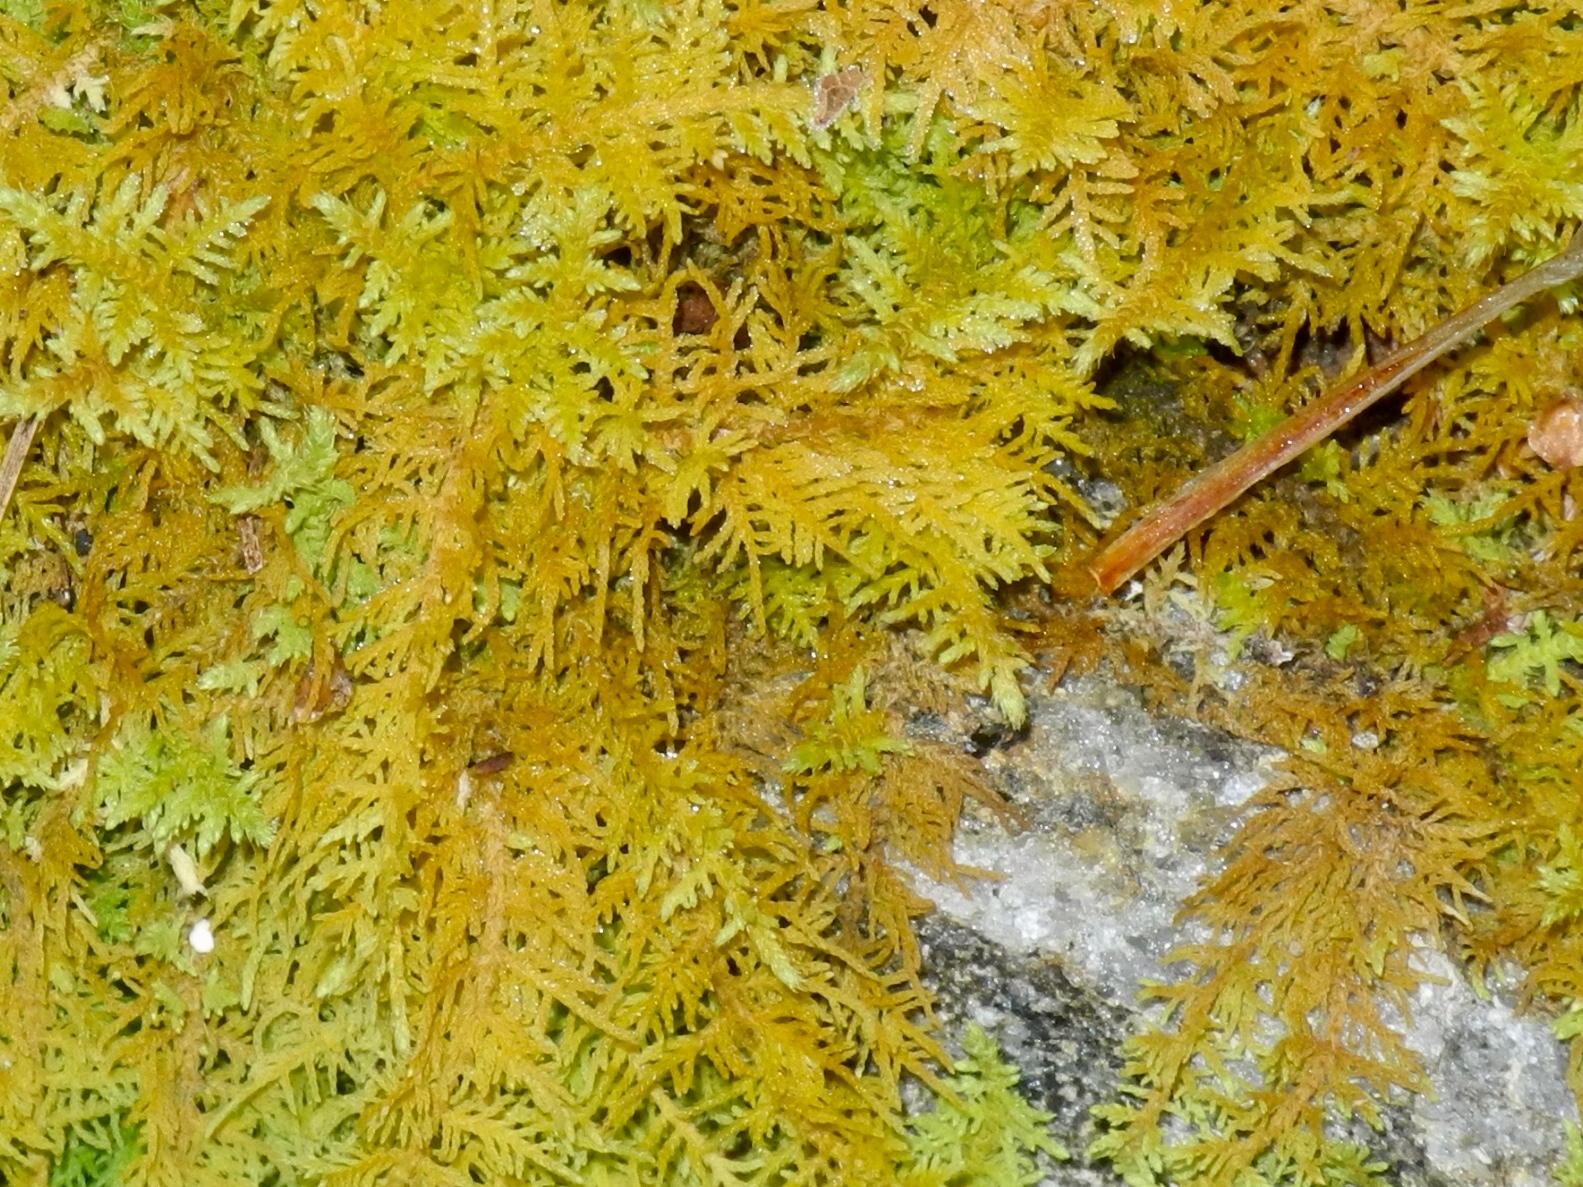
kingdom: Plantae
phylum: Bryophyta
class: Bryopsida
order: Hypnales
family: Thuidiaceae
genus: Thuidium
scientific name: Thuidium recognitum
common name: Hook-leaved fern moss
